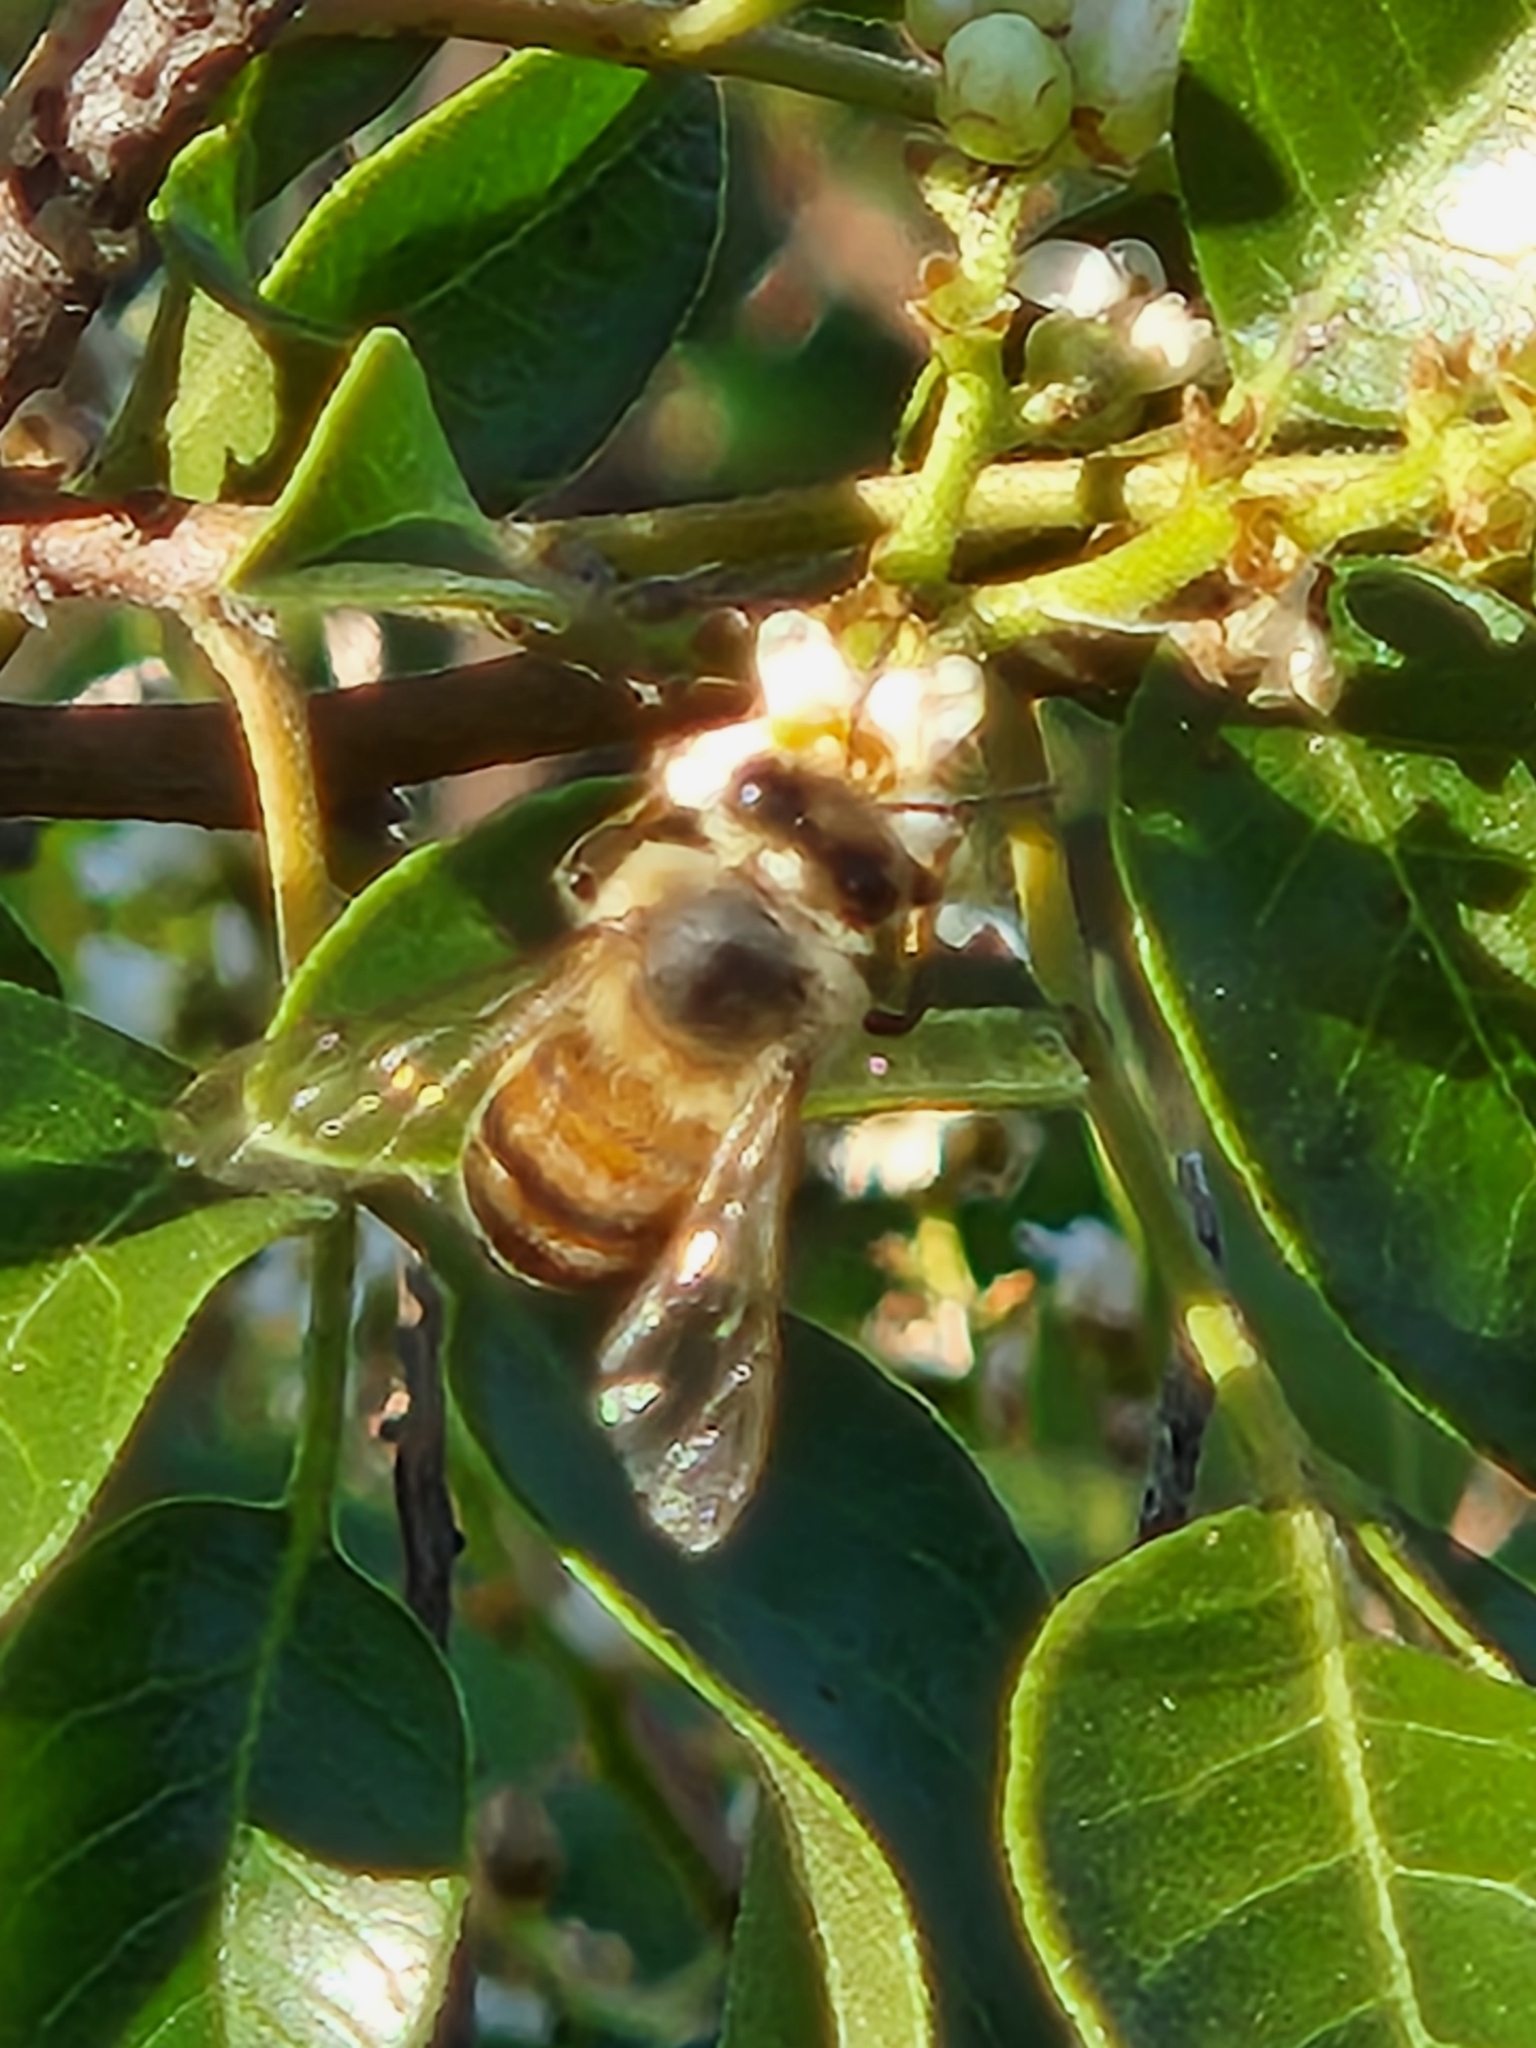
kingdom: Animalia
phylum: Arthropoda
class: Insecta
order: Hymenoptera
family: Apidae
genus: Apis
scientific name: Apis mellifera
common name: Honey bee
